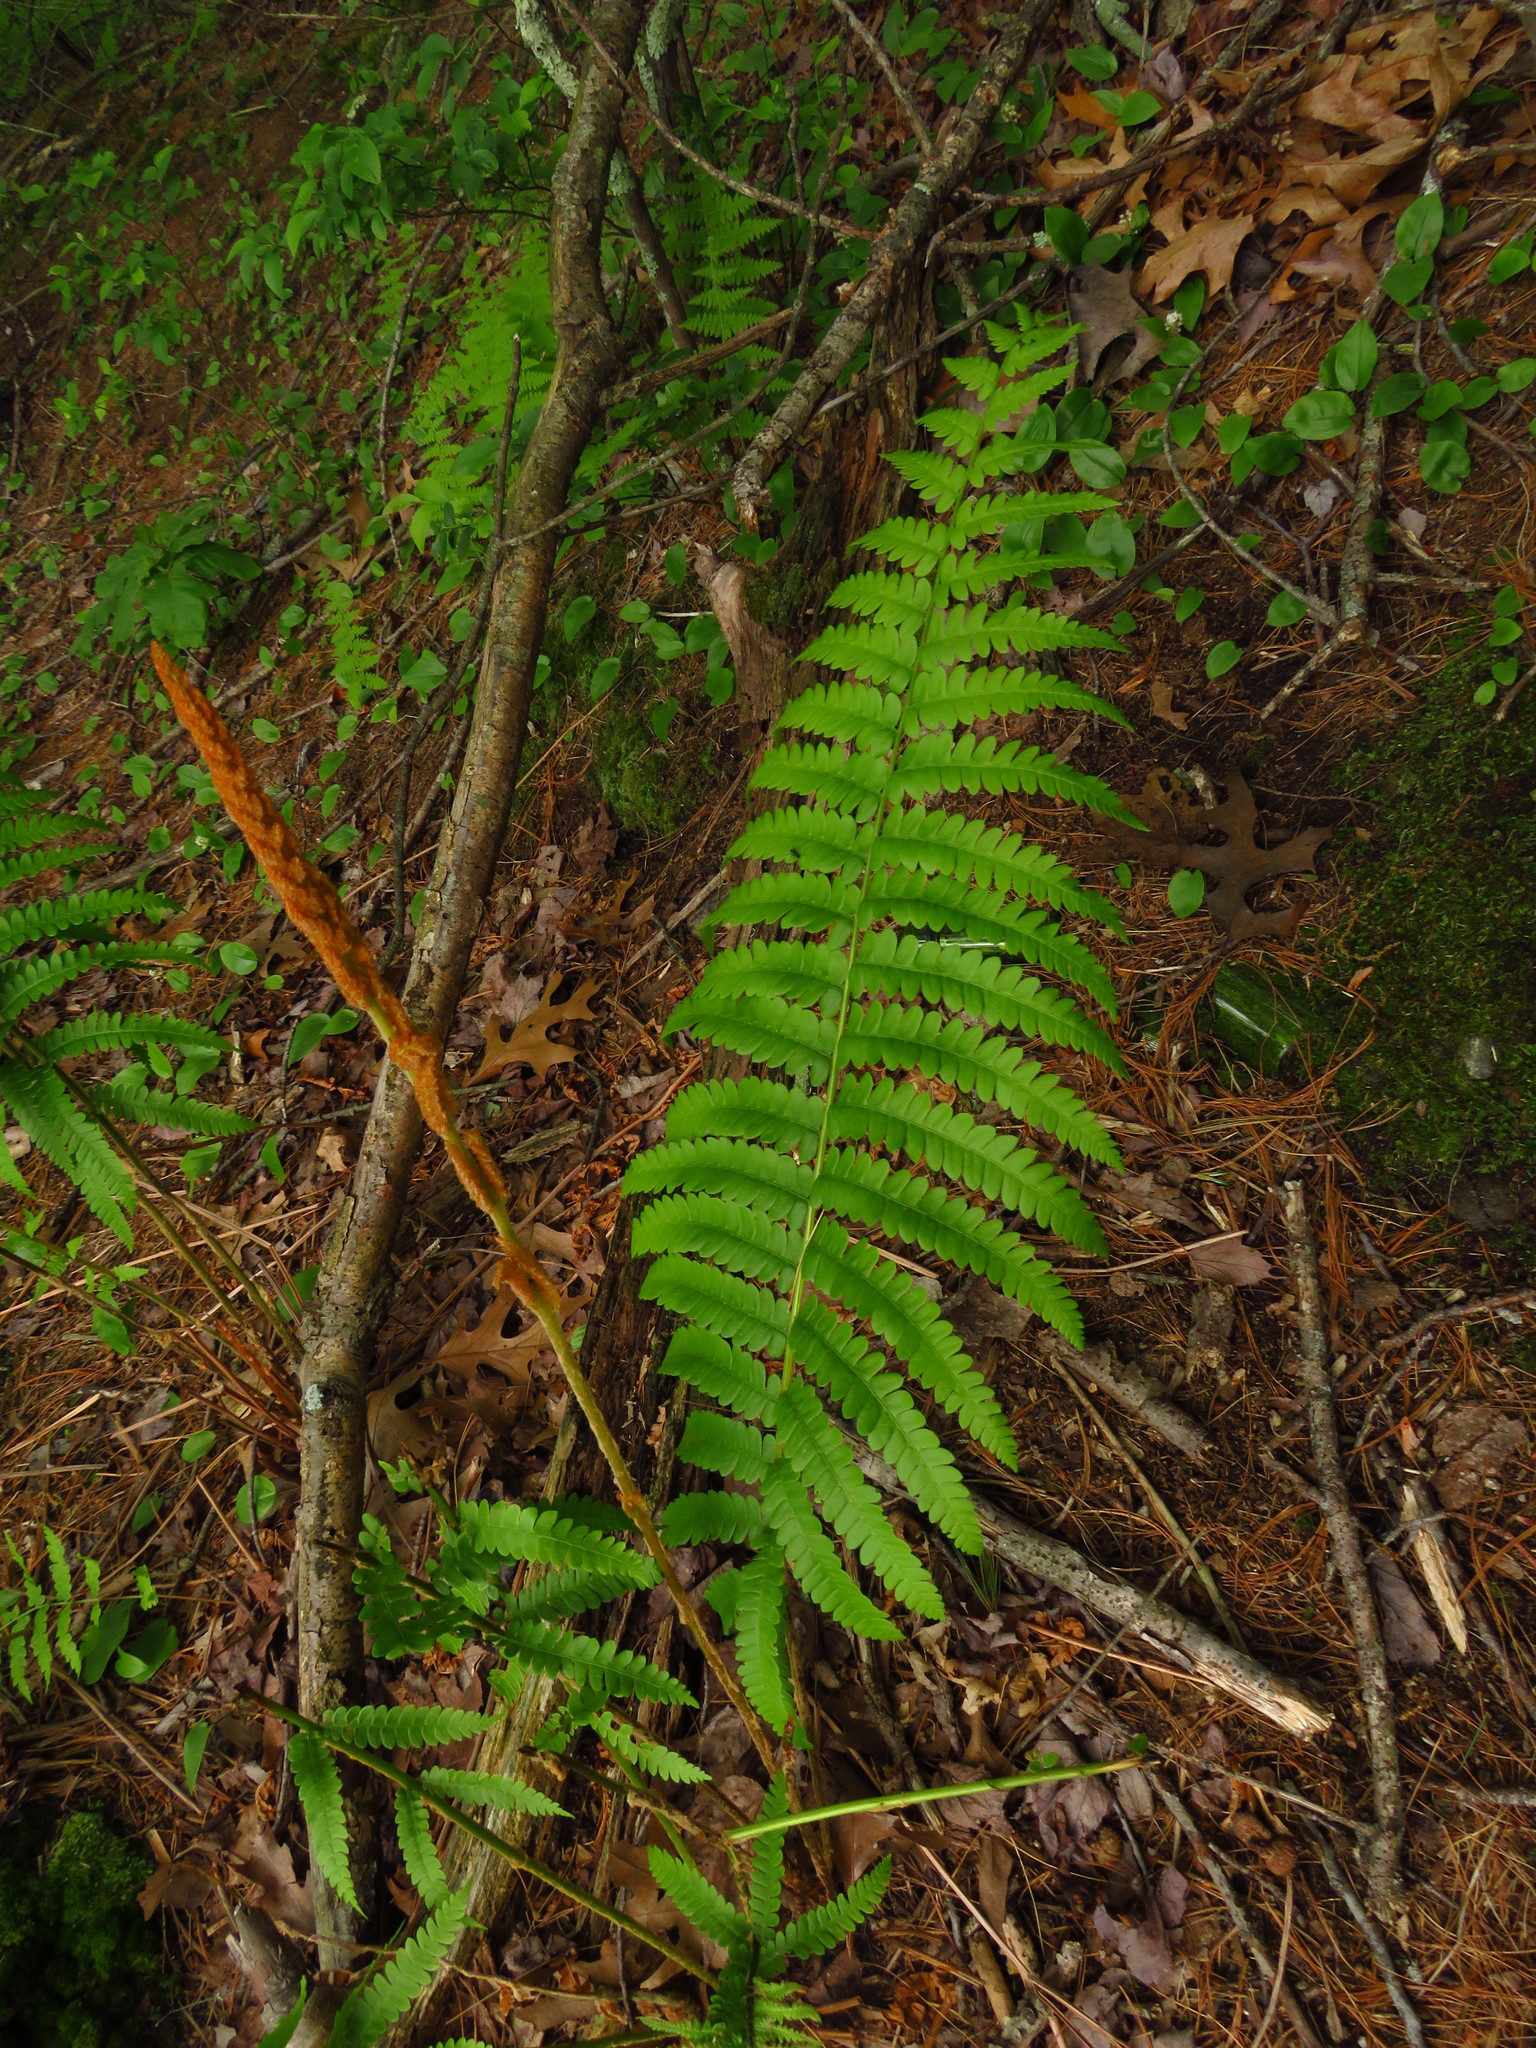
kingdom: Plantae
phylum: Tracheophyta
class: Polypodiopsida
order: Osmundales
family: Osmundaceae
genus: Osmundastrum
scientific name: Osmundastrum cinnamomeum
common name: Cinnamon fern
